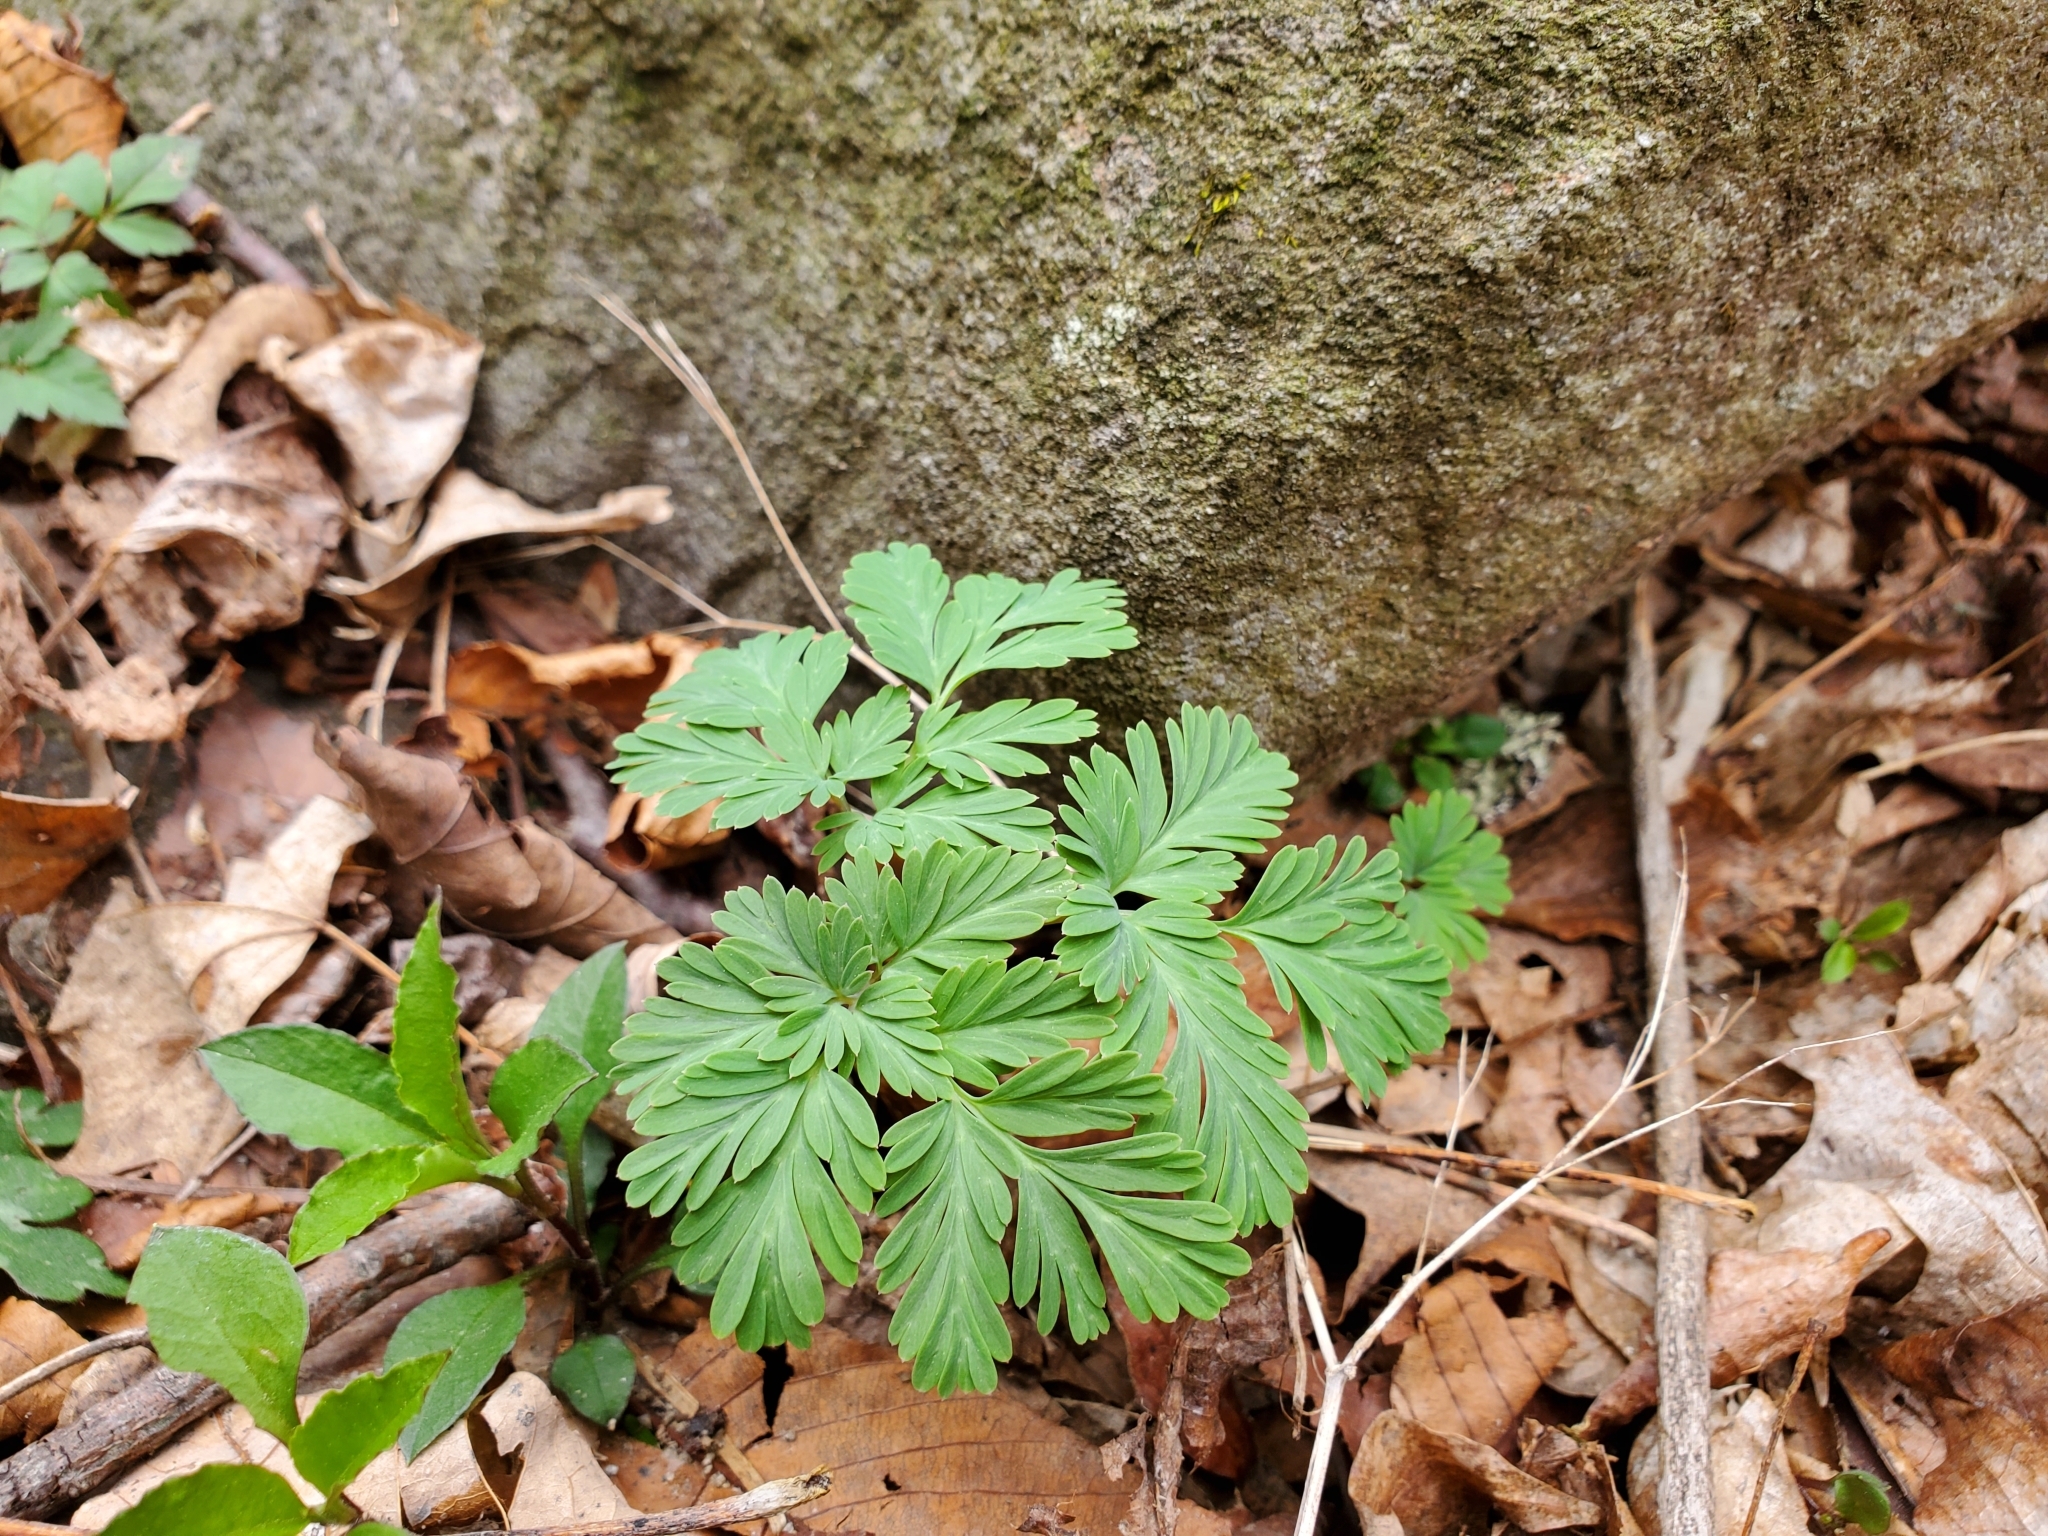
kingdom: Plantae
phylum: Tracheophyta
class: Magnoliopsida
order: Ranunculales
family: Papaveraceae
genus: Dicentra
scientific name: Dicentra cucullaria
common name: Dutchman's breeches
